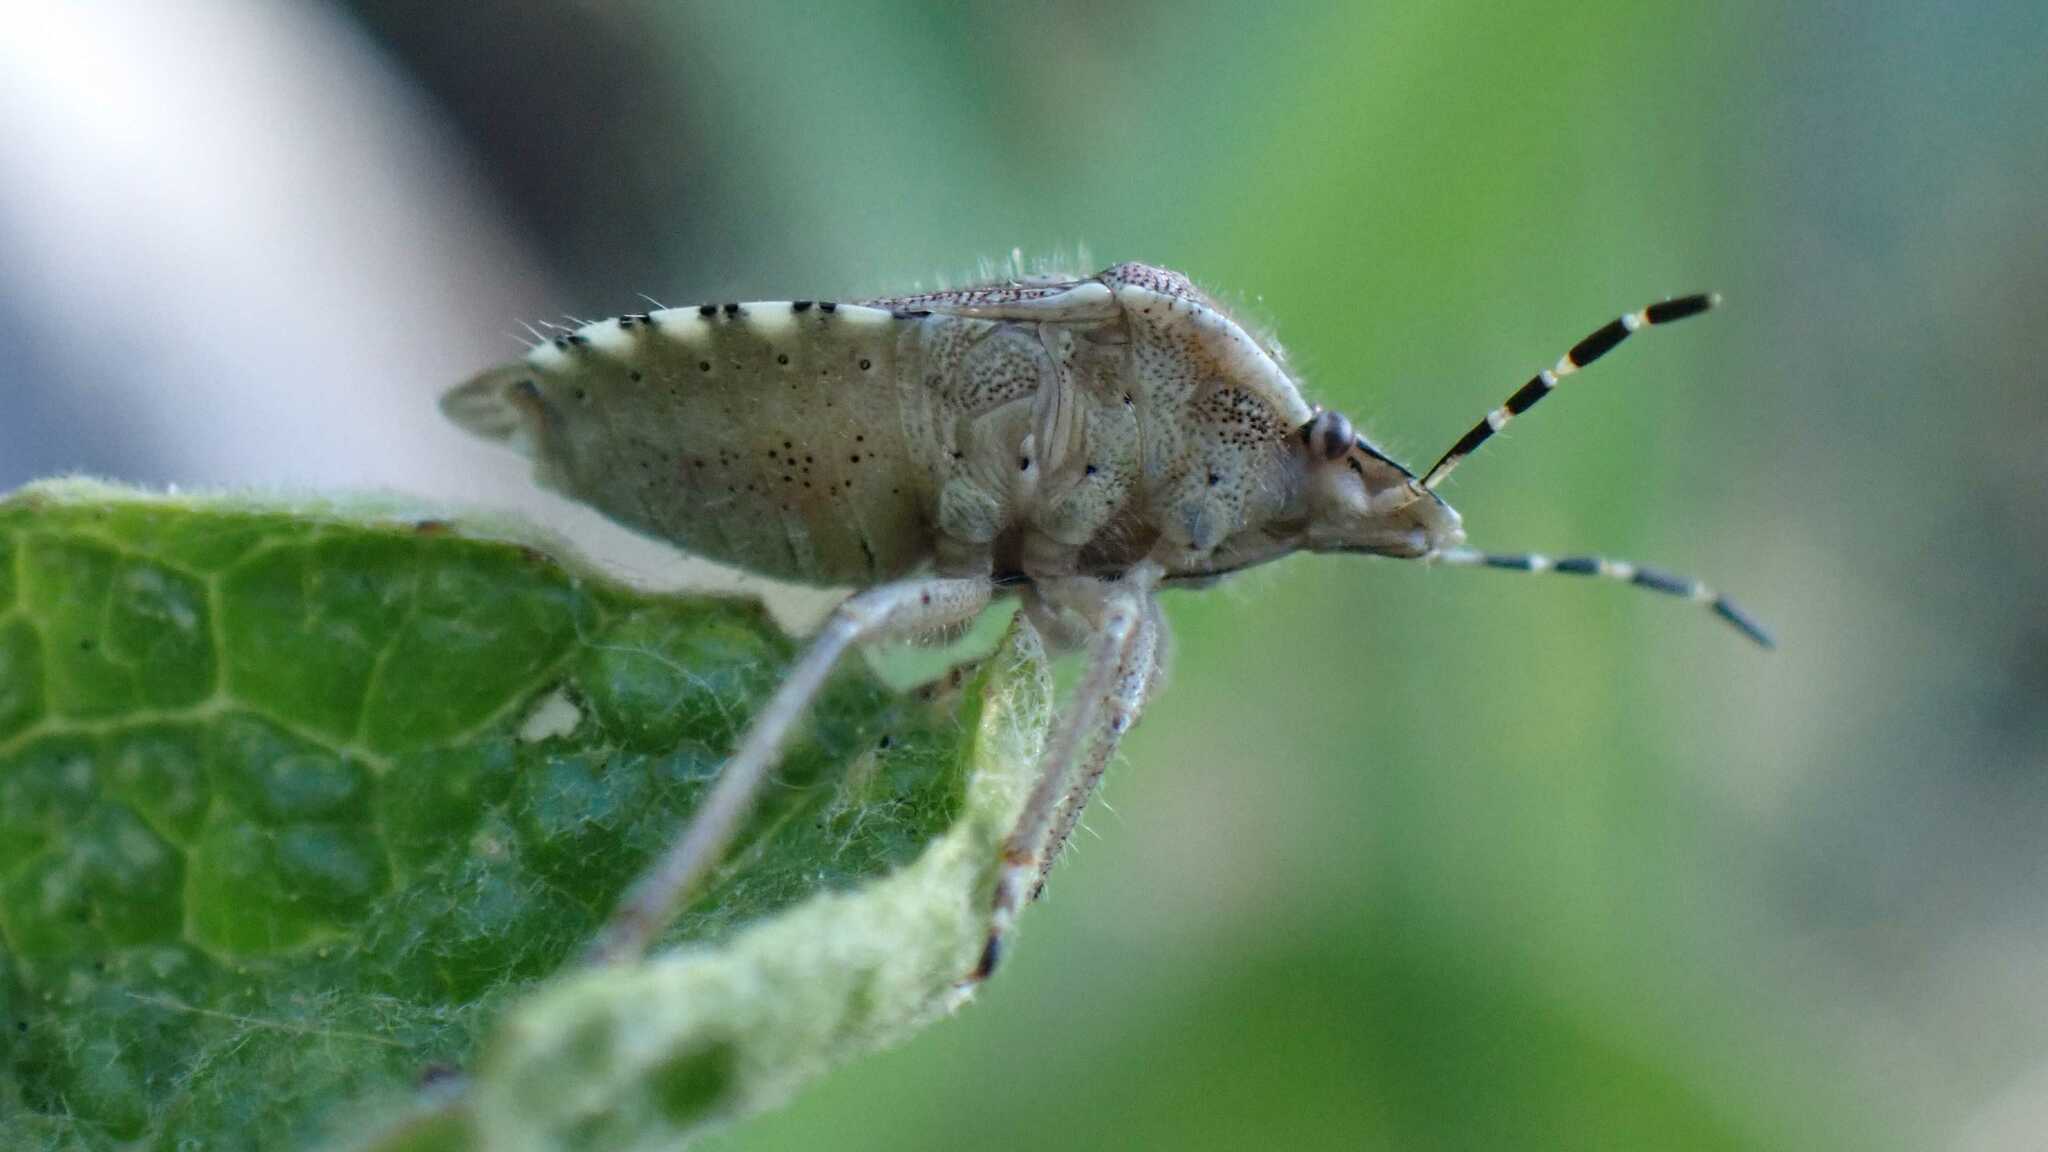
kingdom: Animalia
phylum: Arthropoda
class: Insecta
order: Hemiptera
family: Pentatomidae
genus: Dolycoris
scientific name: Dolycoris baccarum
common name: Sloe bug
